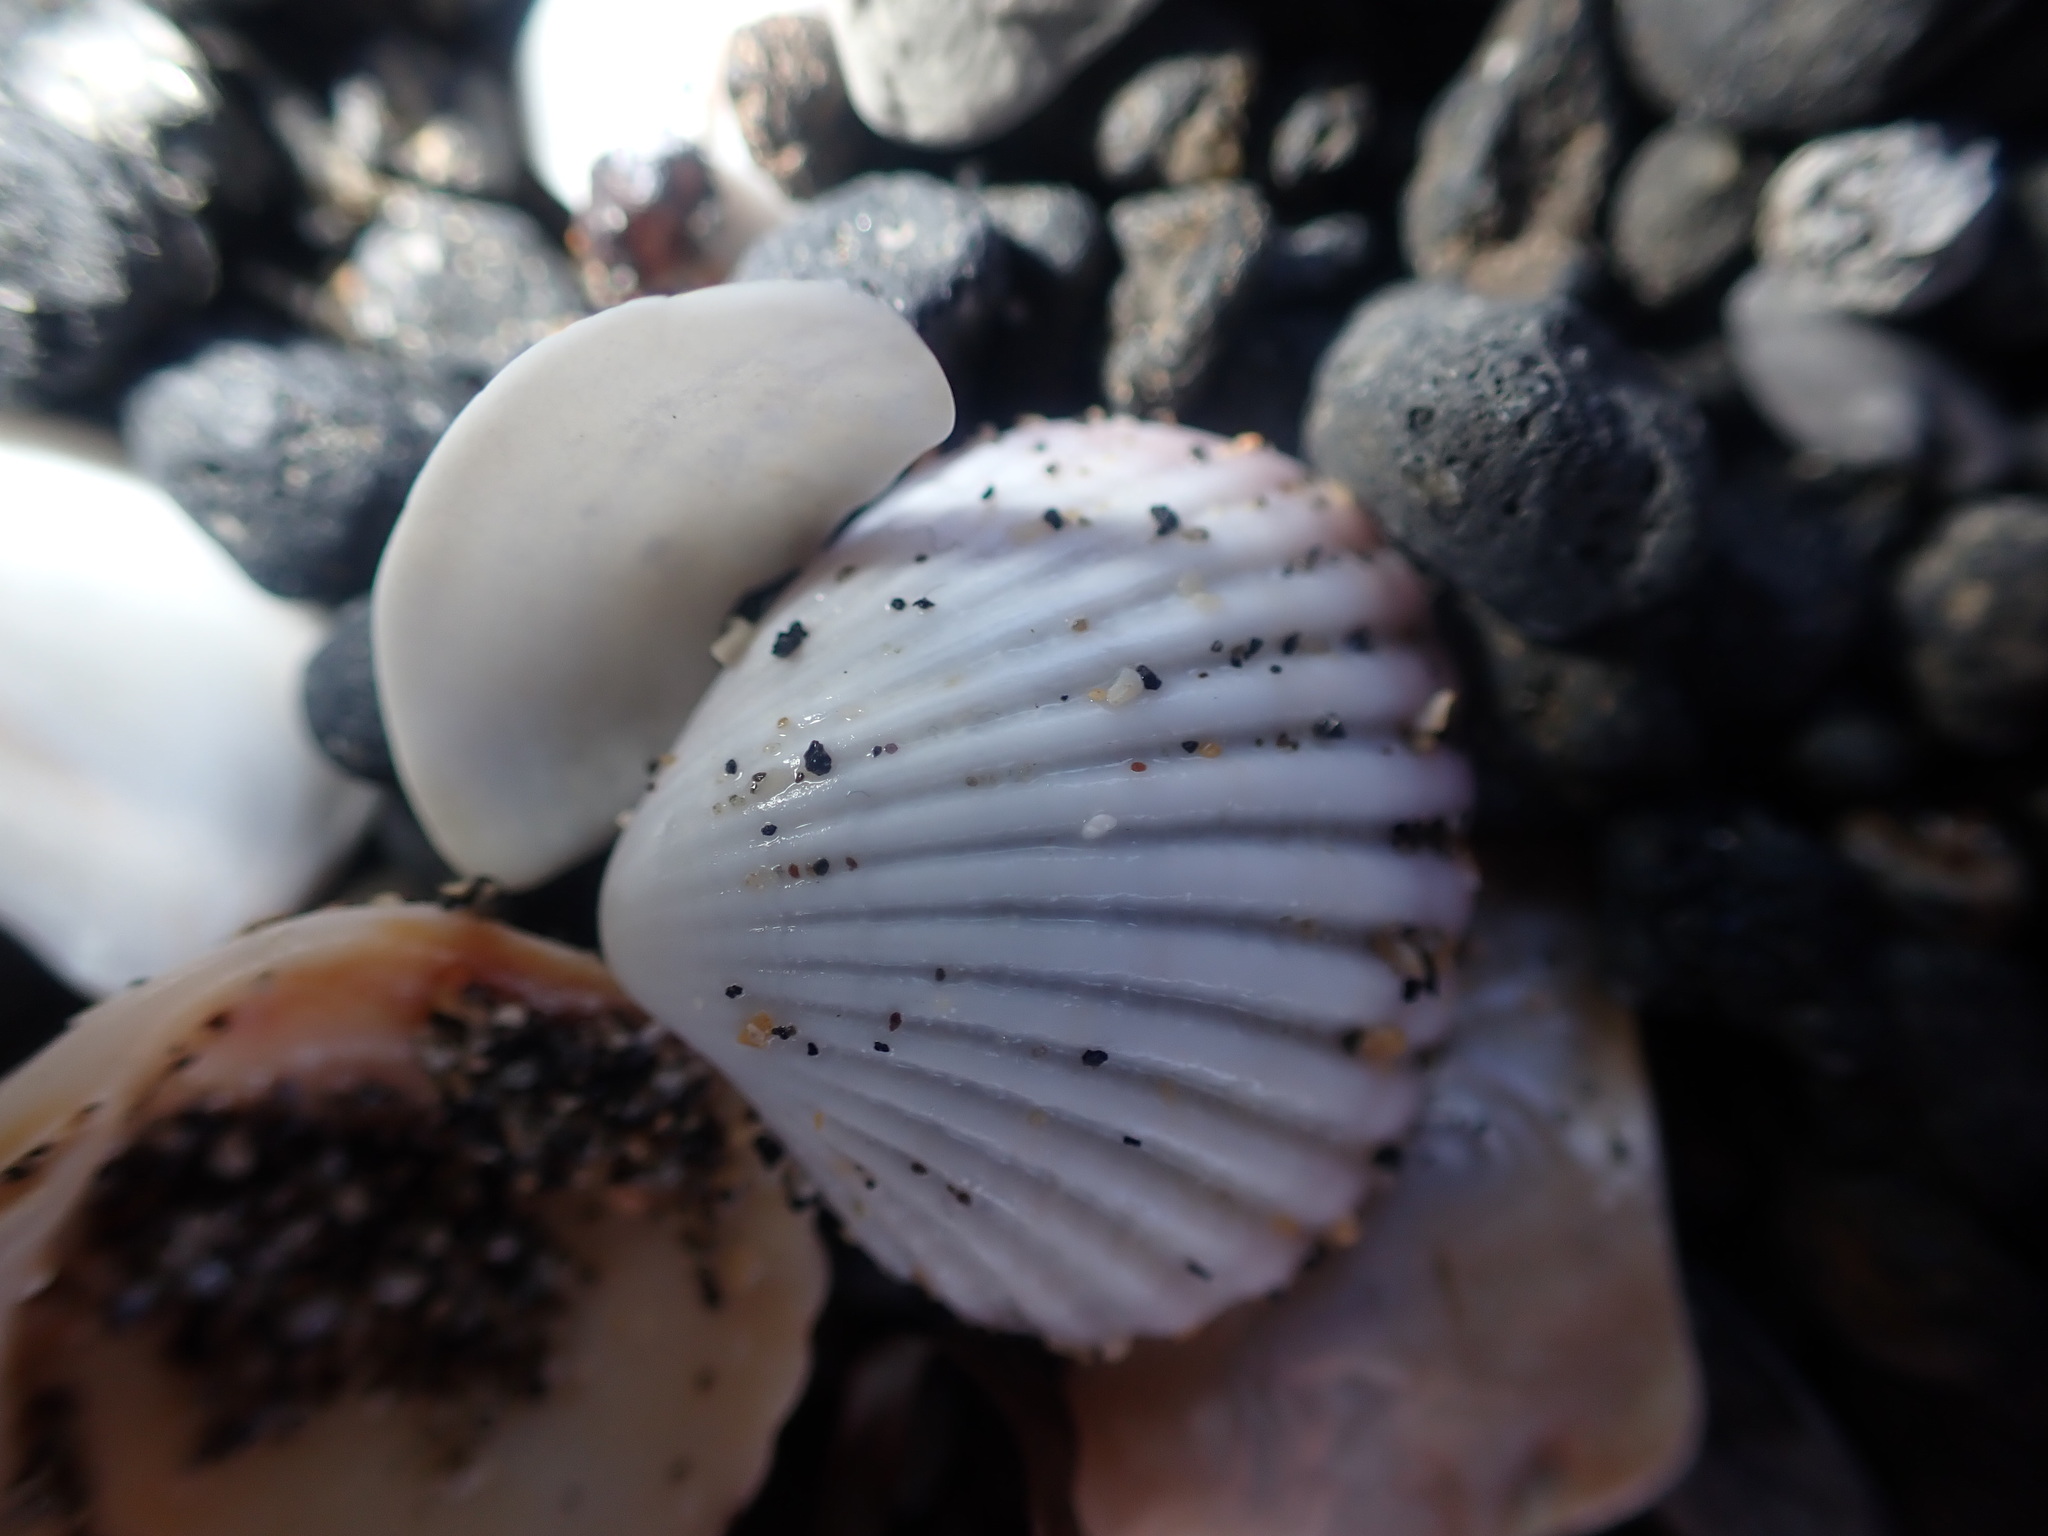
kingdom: Animalia
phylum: Mollusca
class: Bivalvia
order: Carditida
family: Carditidae
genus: Purpurocardia
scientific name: Purpurocardia purpurata
